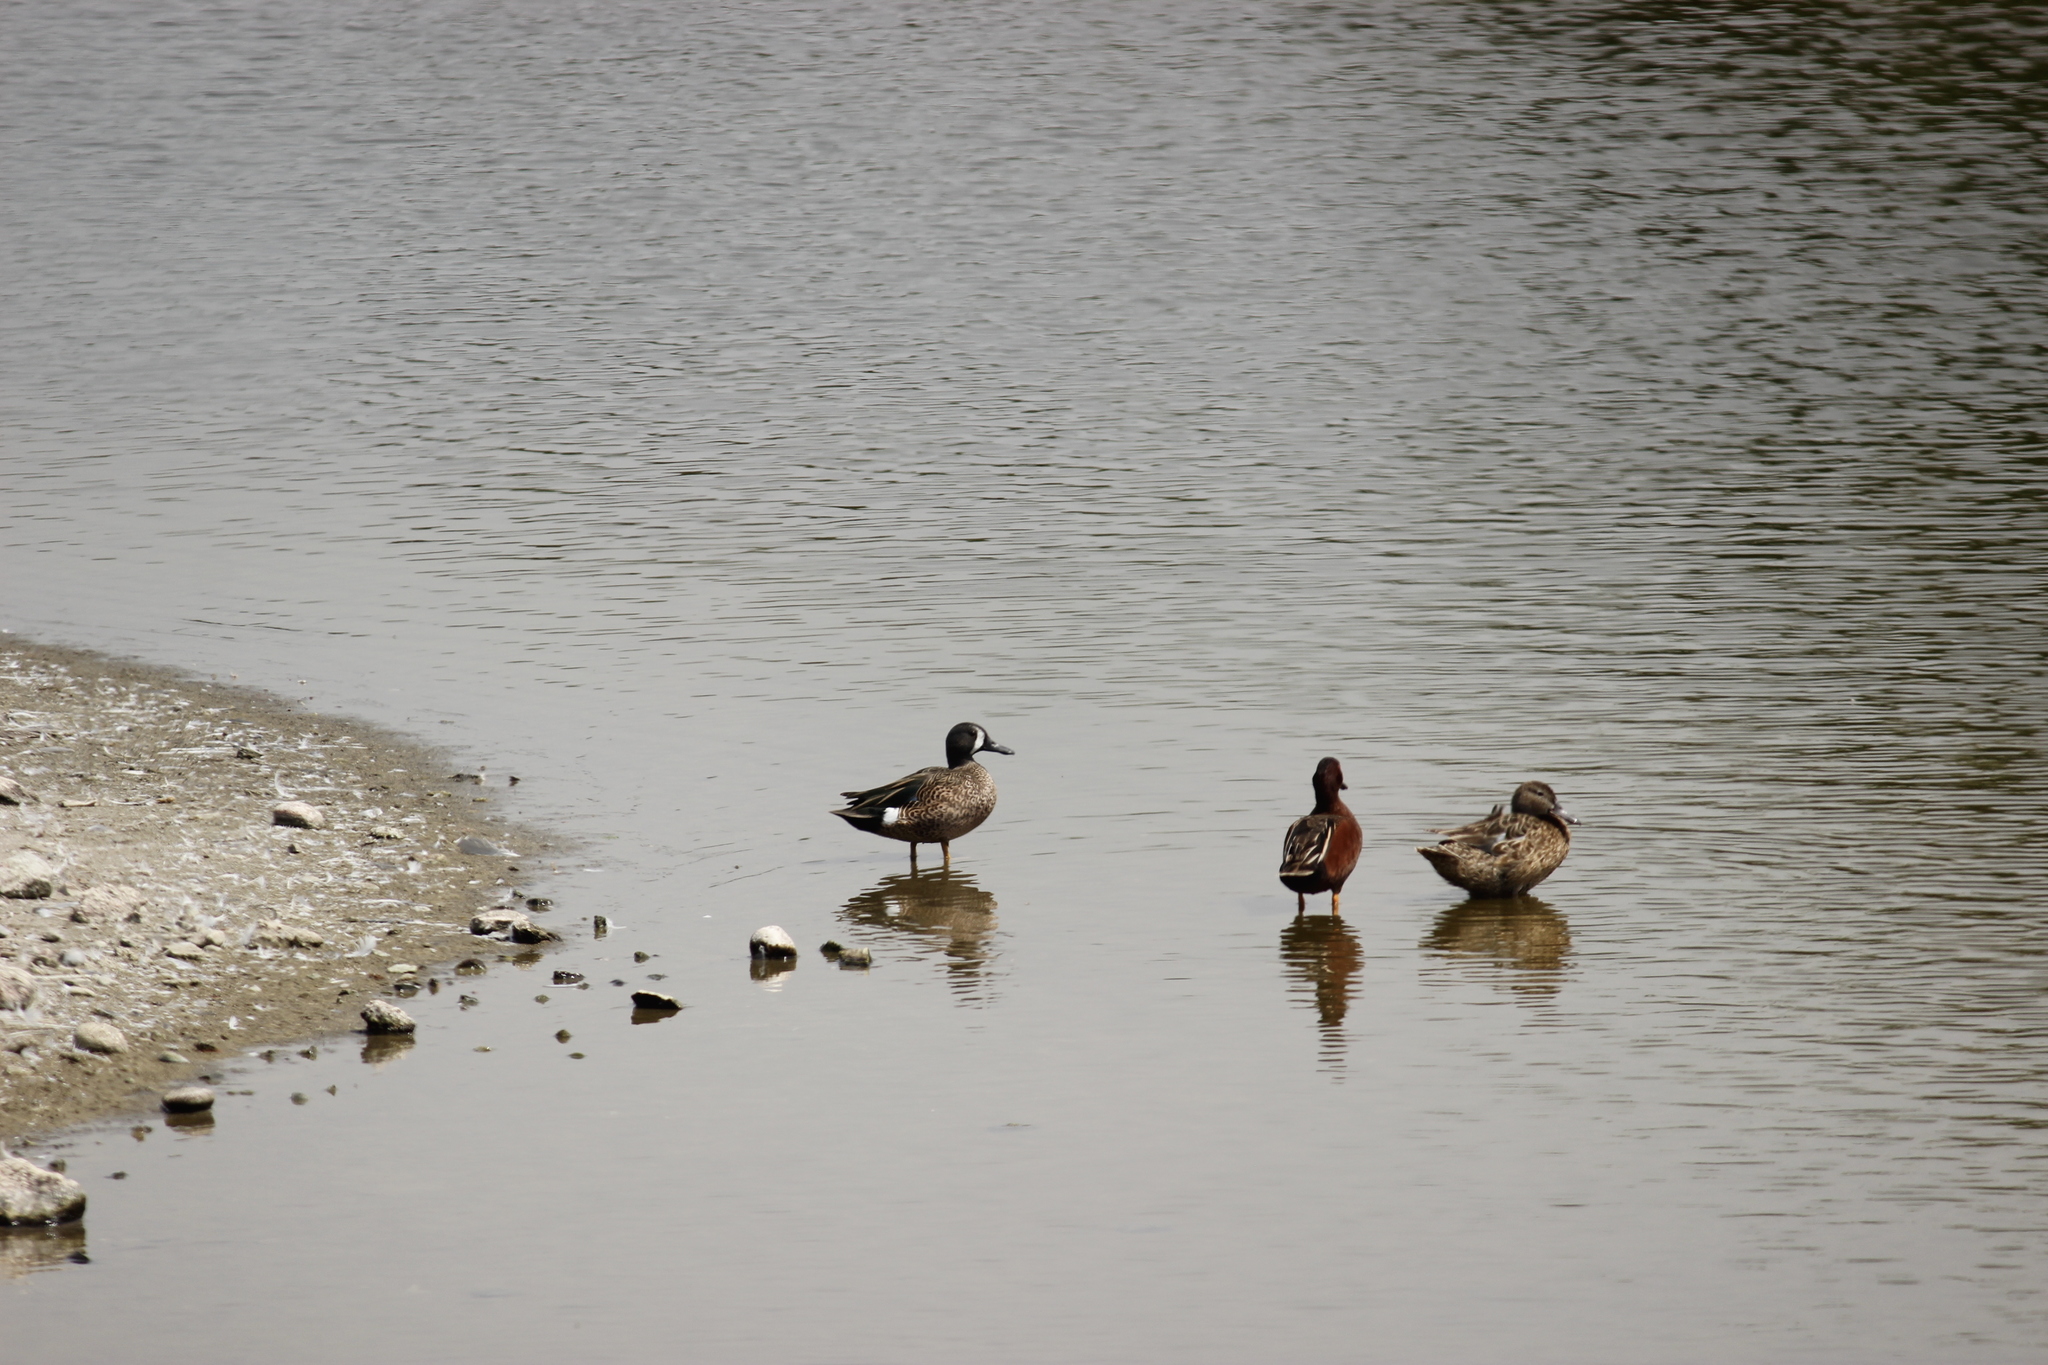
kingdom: Animalia
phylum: Chordata
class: Aves
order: Anseriformes
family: Anatidae
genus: Spatula
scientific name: Spatula discors
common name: Blue-winged teal
